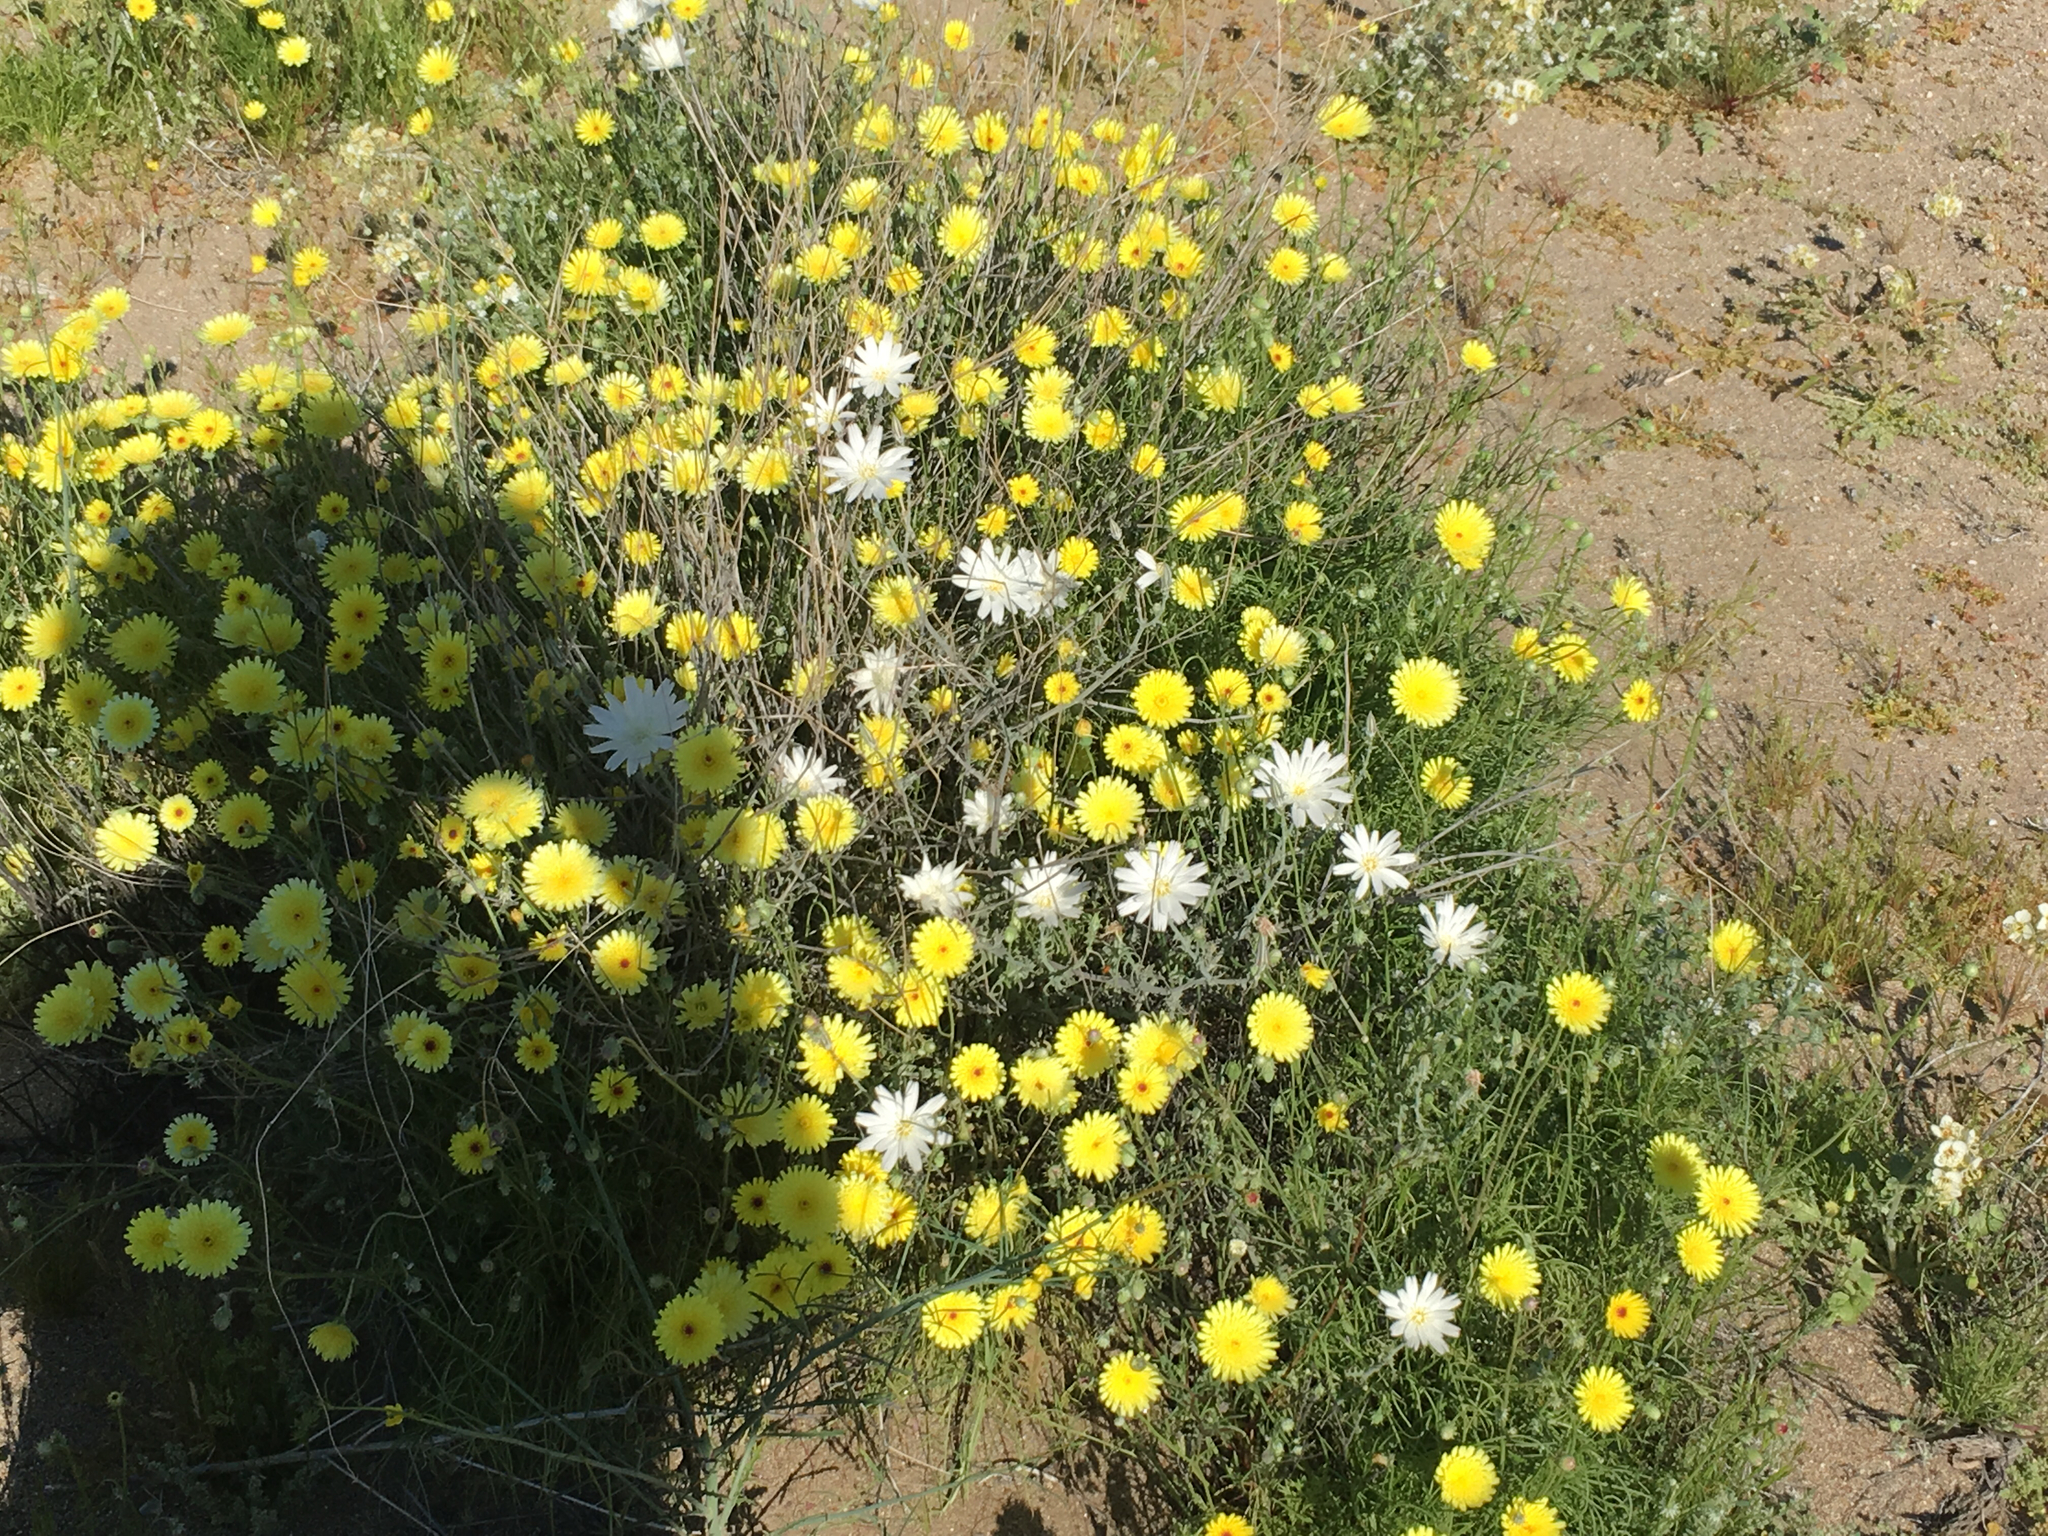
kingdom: Plantae
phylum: Tracheophyta
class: Magnoliopsida
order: Asterales
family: Asteraceae
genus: Rafinesquia
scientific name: Rafinesquia neomexicana
